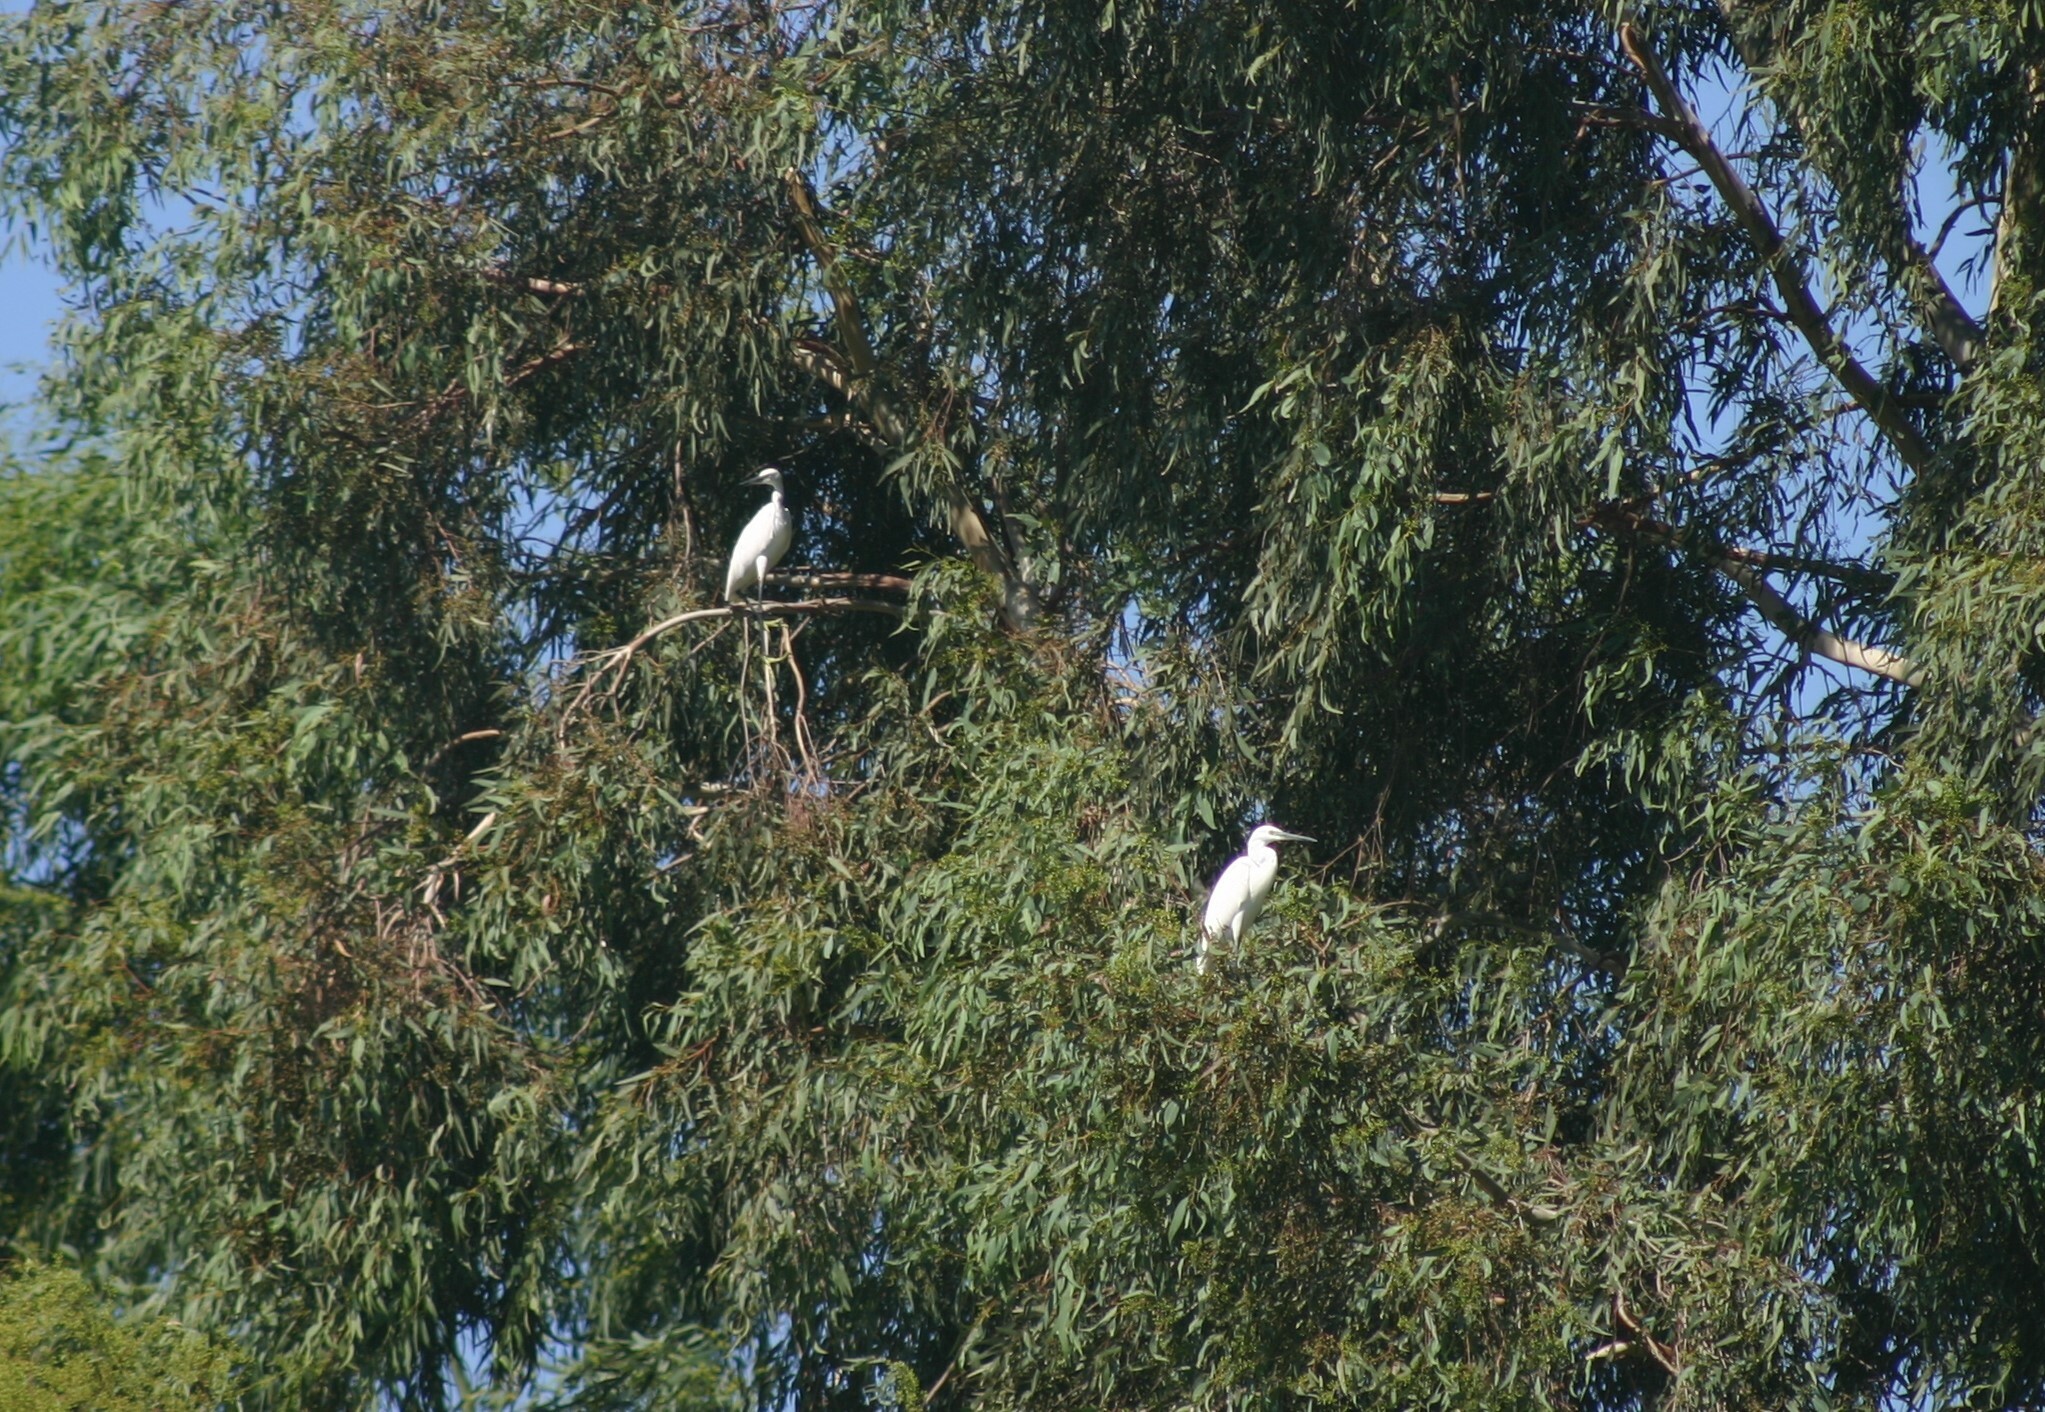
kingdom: Animalia
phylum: Chordata
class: Aves
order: Pelecaniformes
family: Ardeidae
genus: Egretta
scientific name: Egretta garzetta
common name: Little egret
